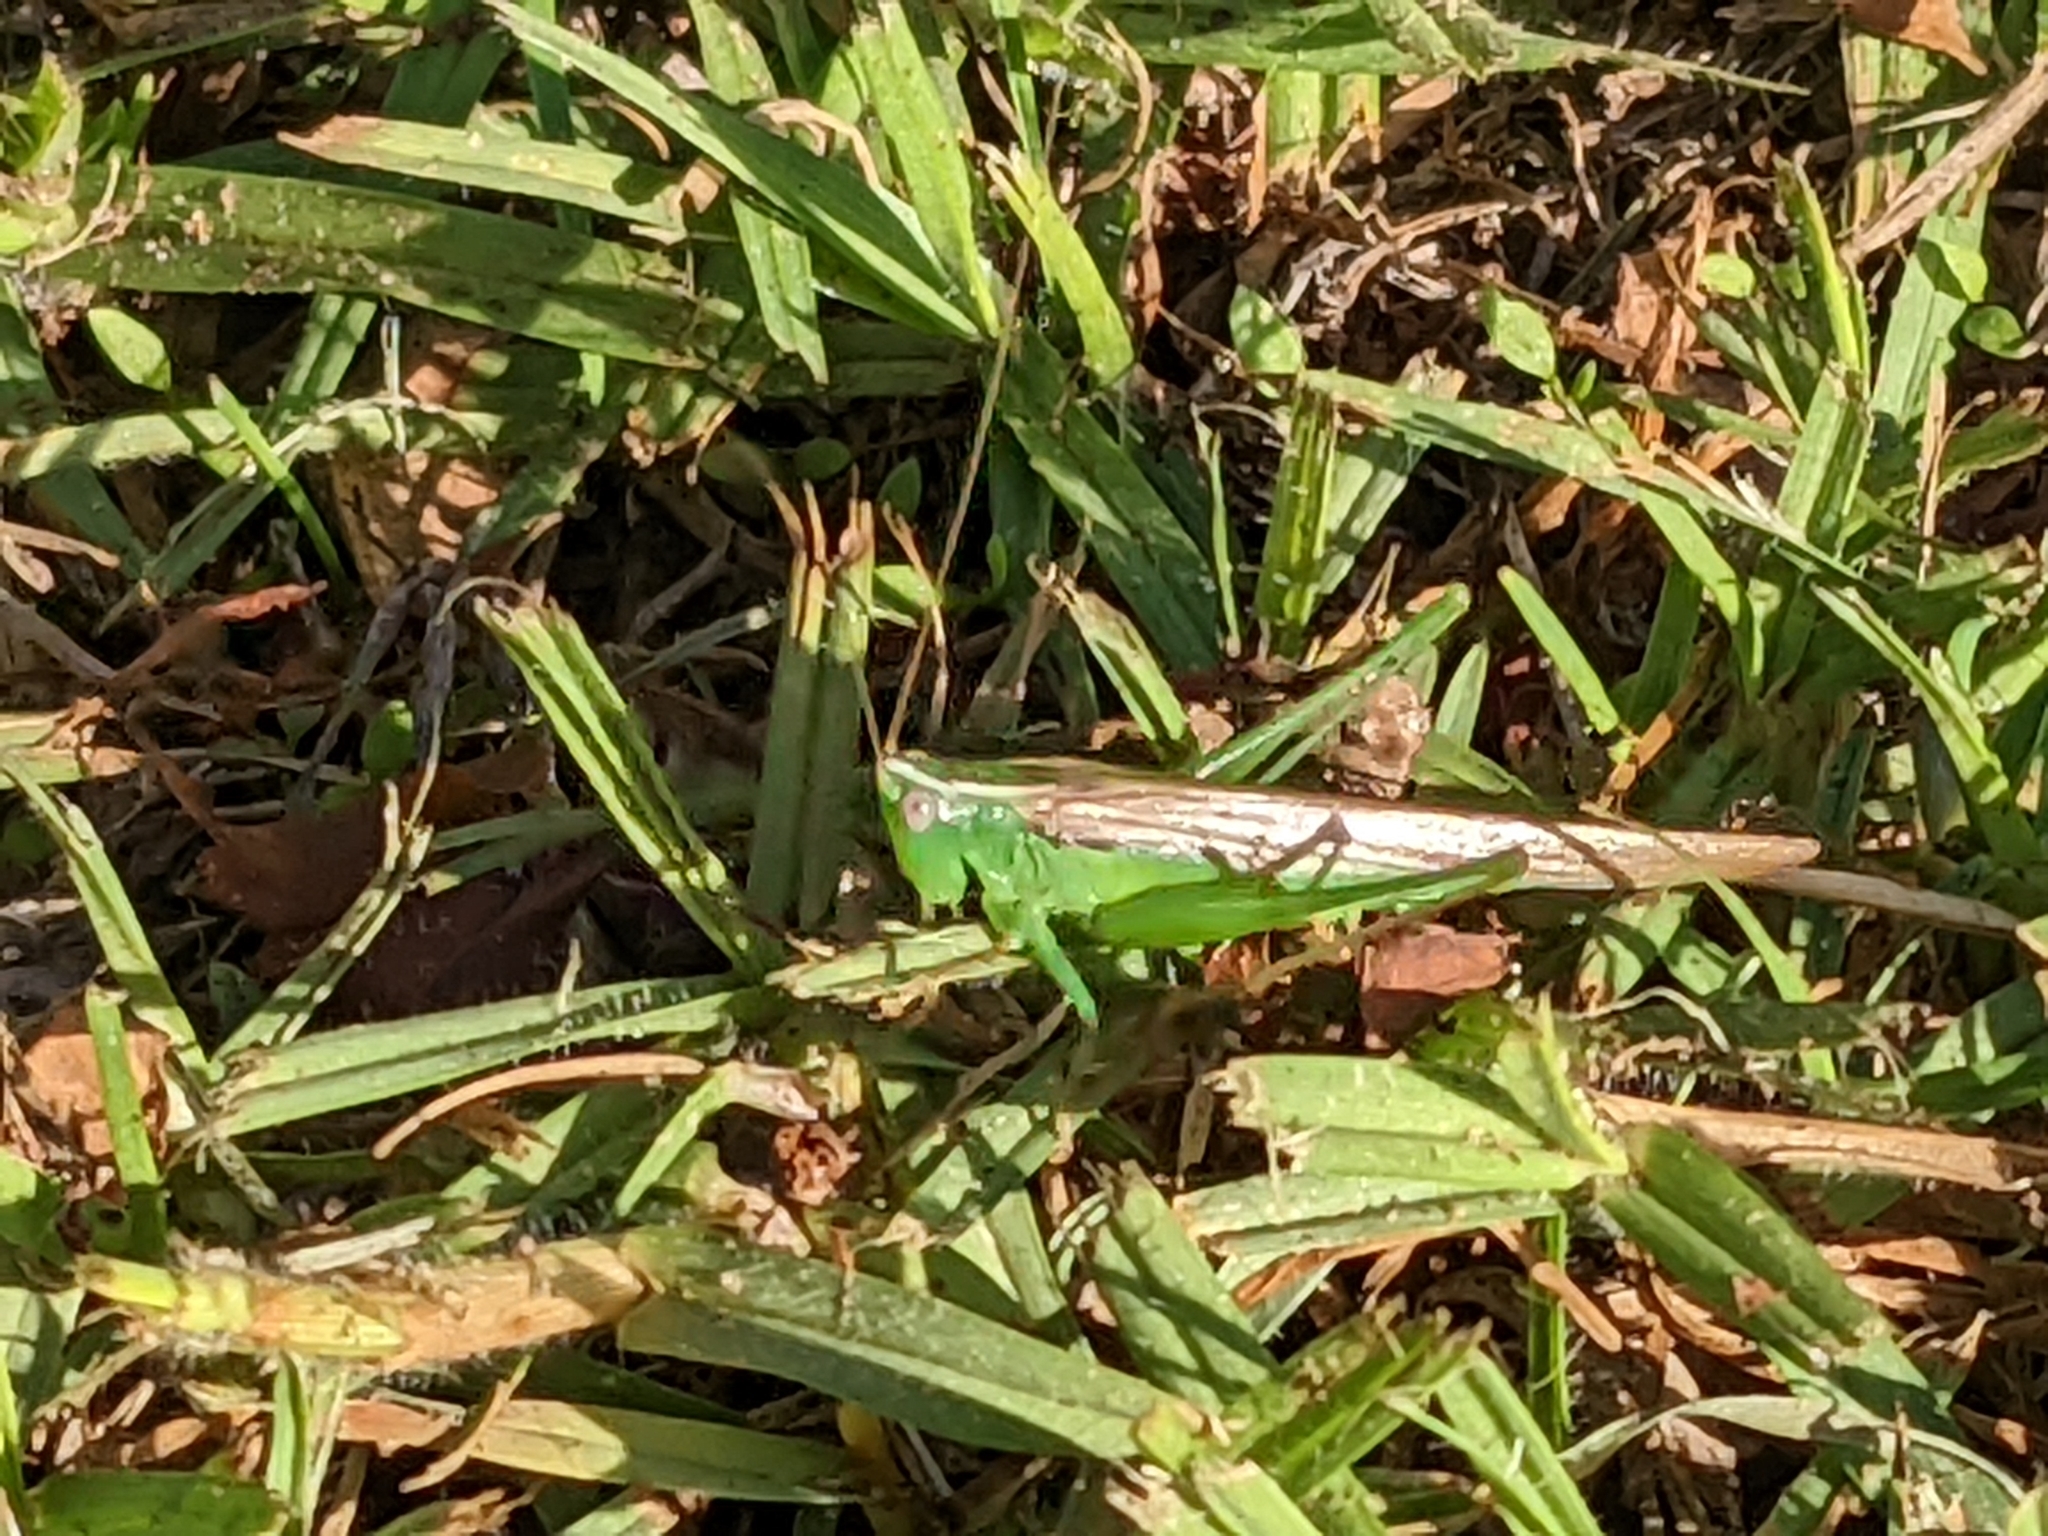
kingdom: Animalia
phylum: Arthropoda
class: Insecta
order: Orthoptera
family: Tettigoniidae
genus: Conocephalus
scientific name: Conocephalus upoluensis
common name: Upolu meadow katydid
